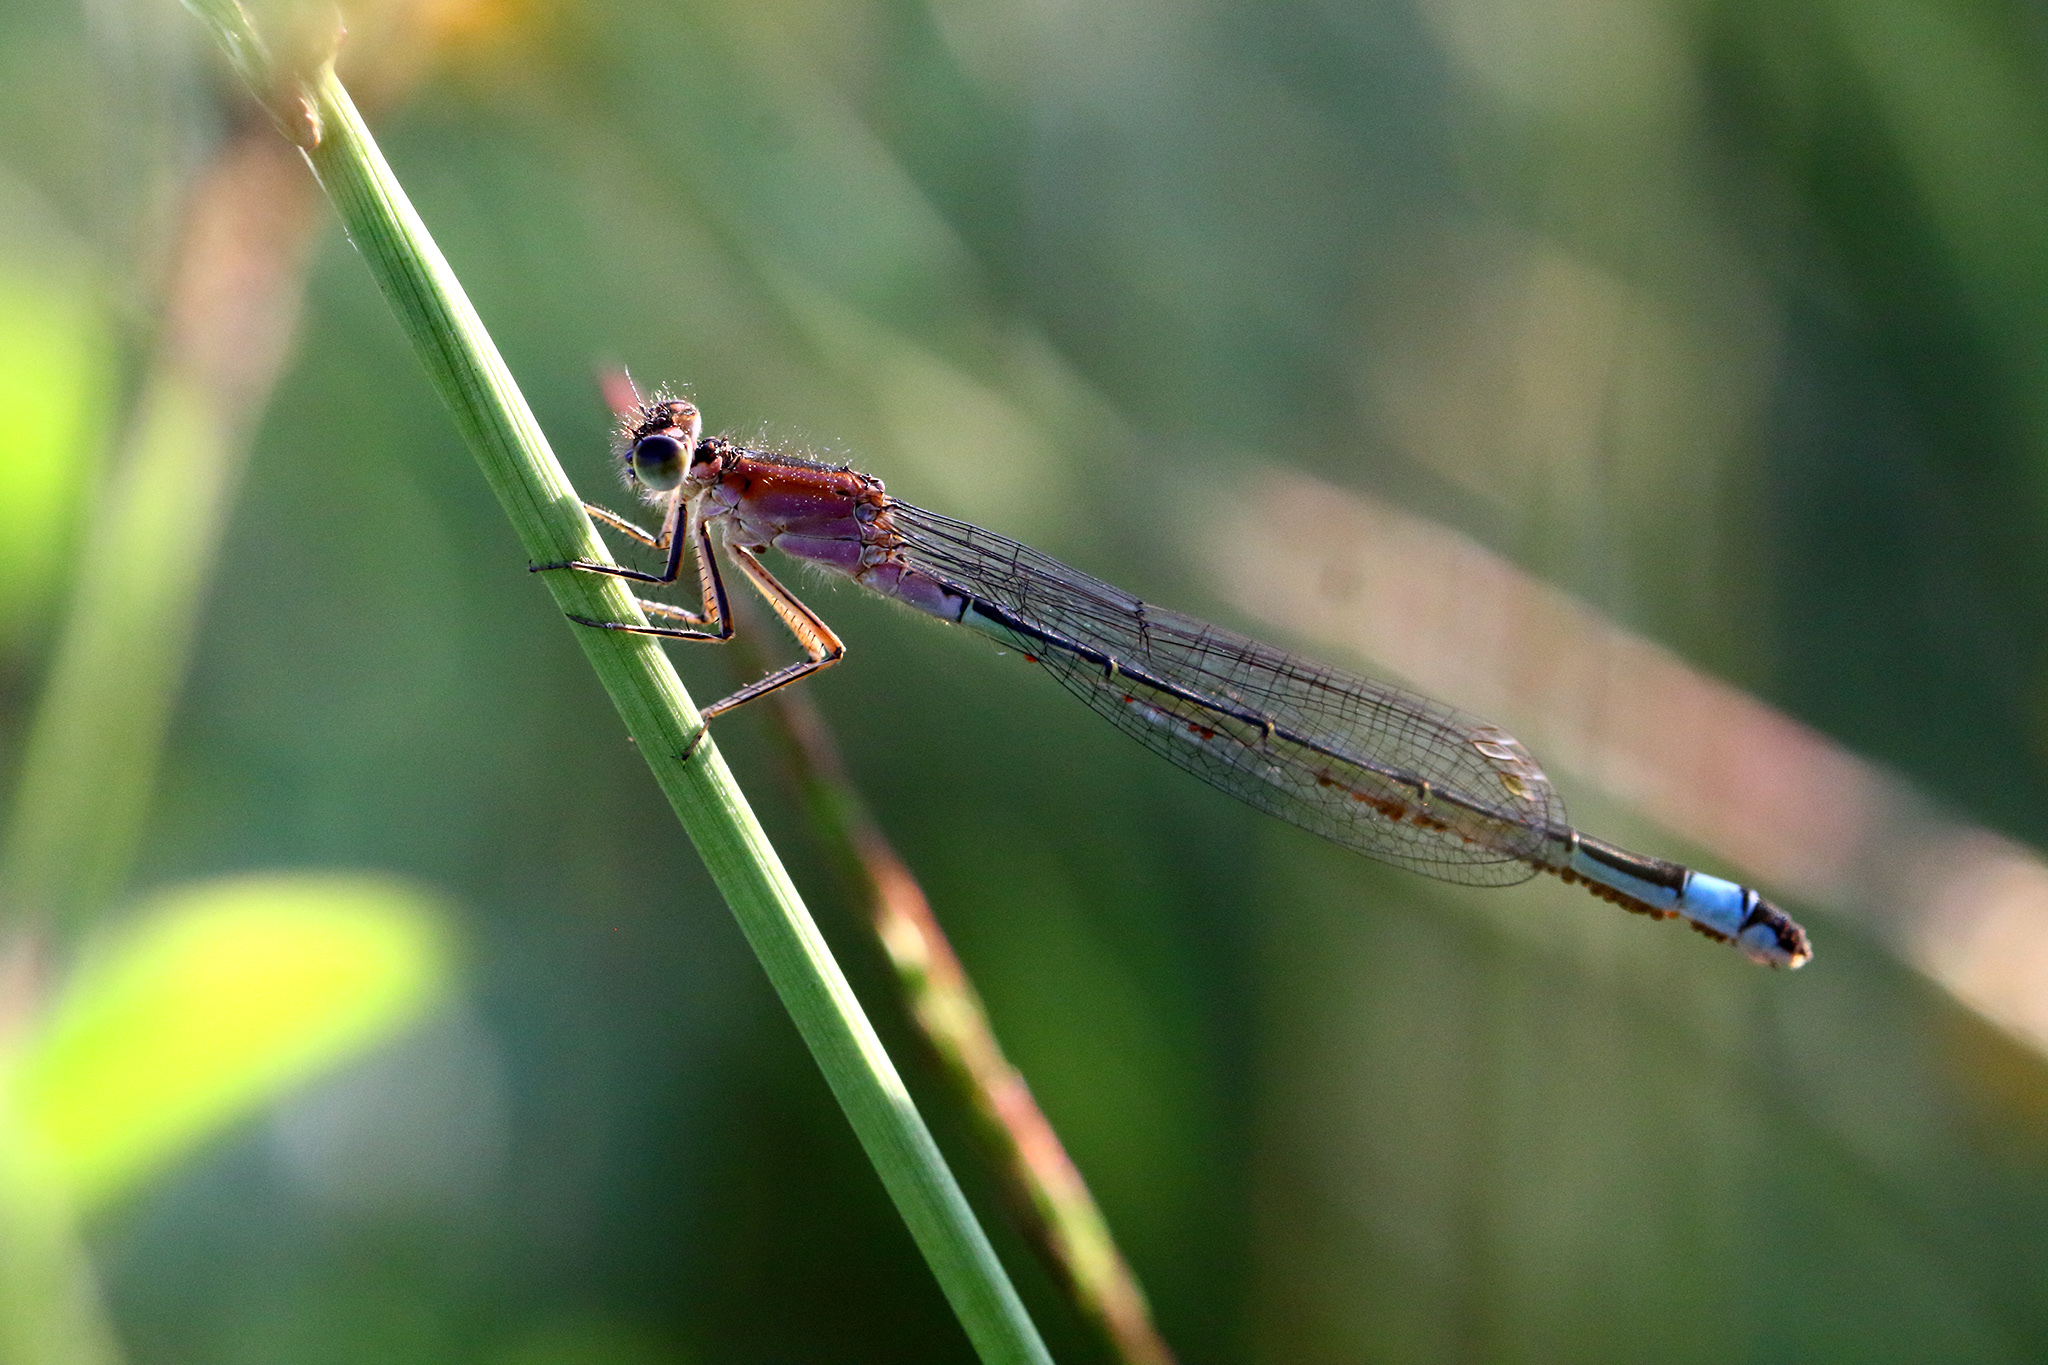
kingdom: Animalia
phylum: Arthropoda
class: Insecta
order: Odonata
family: Coenagrionidae
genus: Ischnura
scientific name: Ischnura elegans
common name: Blue-tailed damselfly
